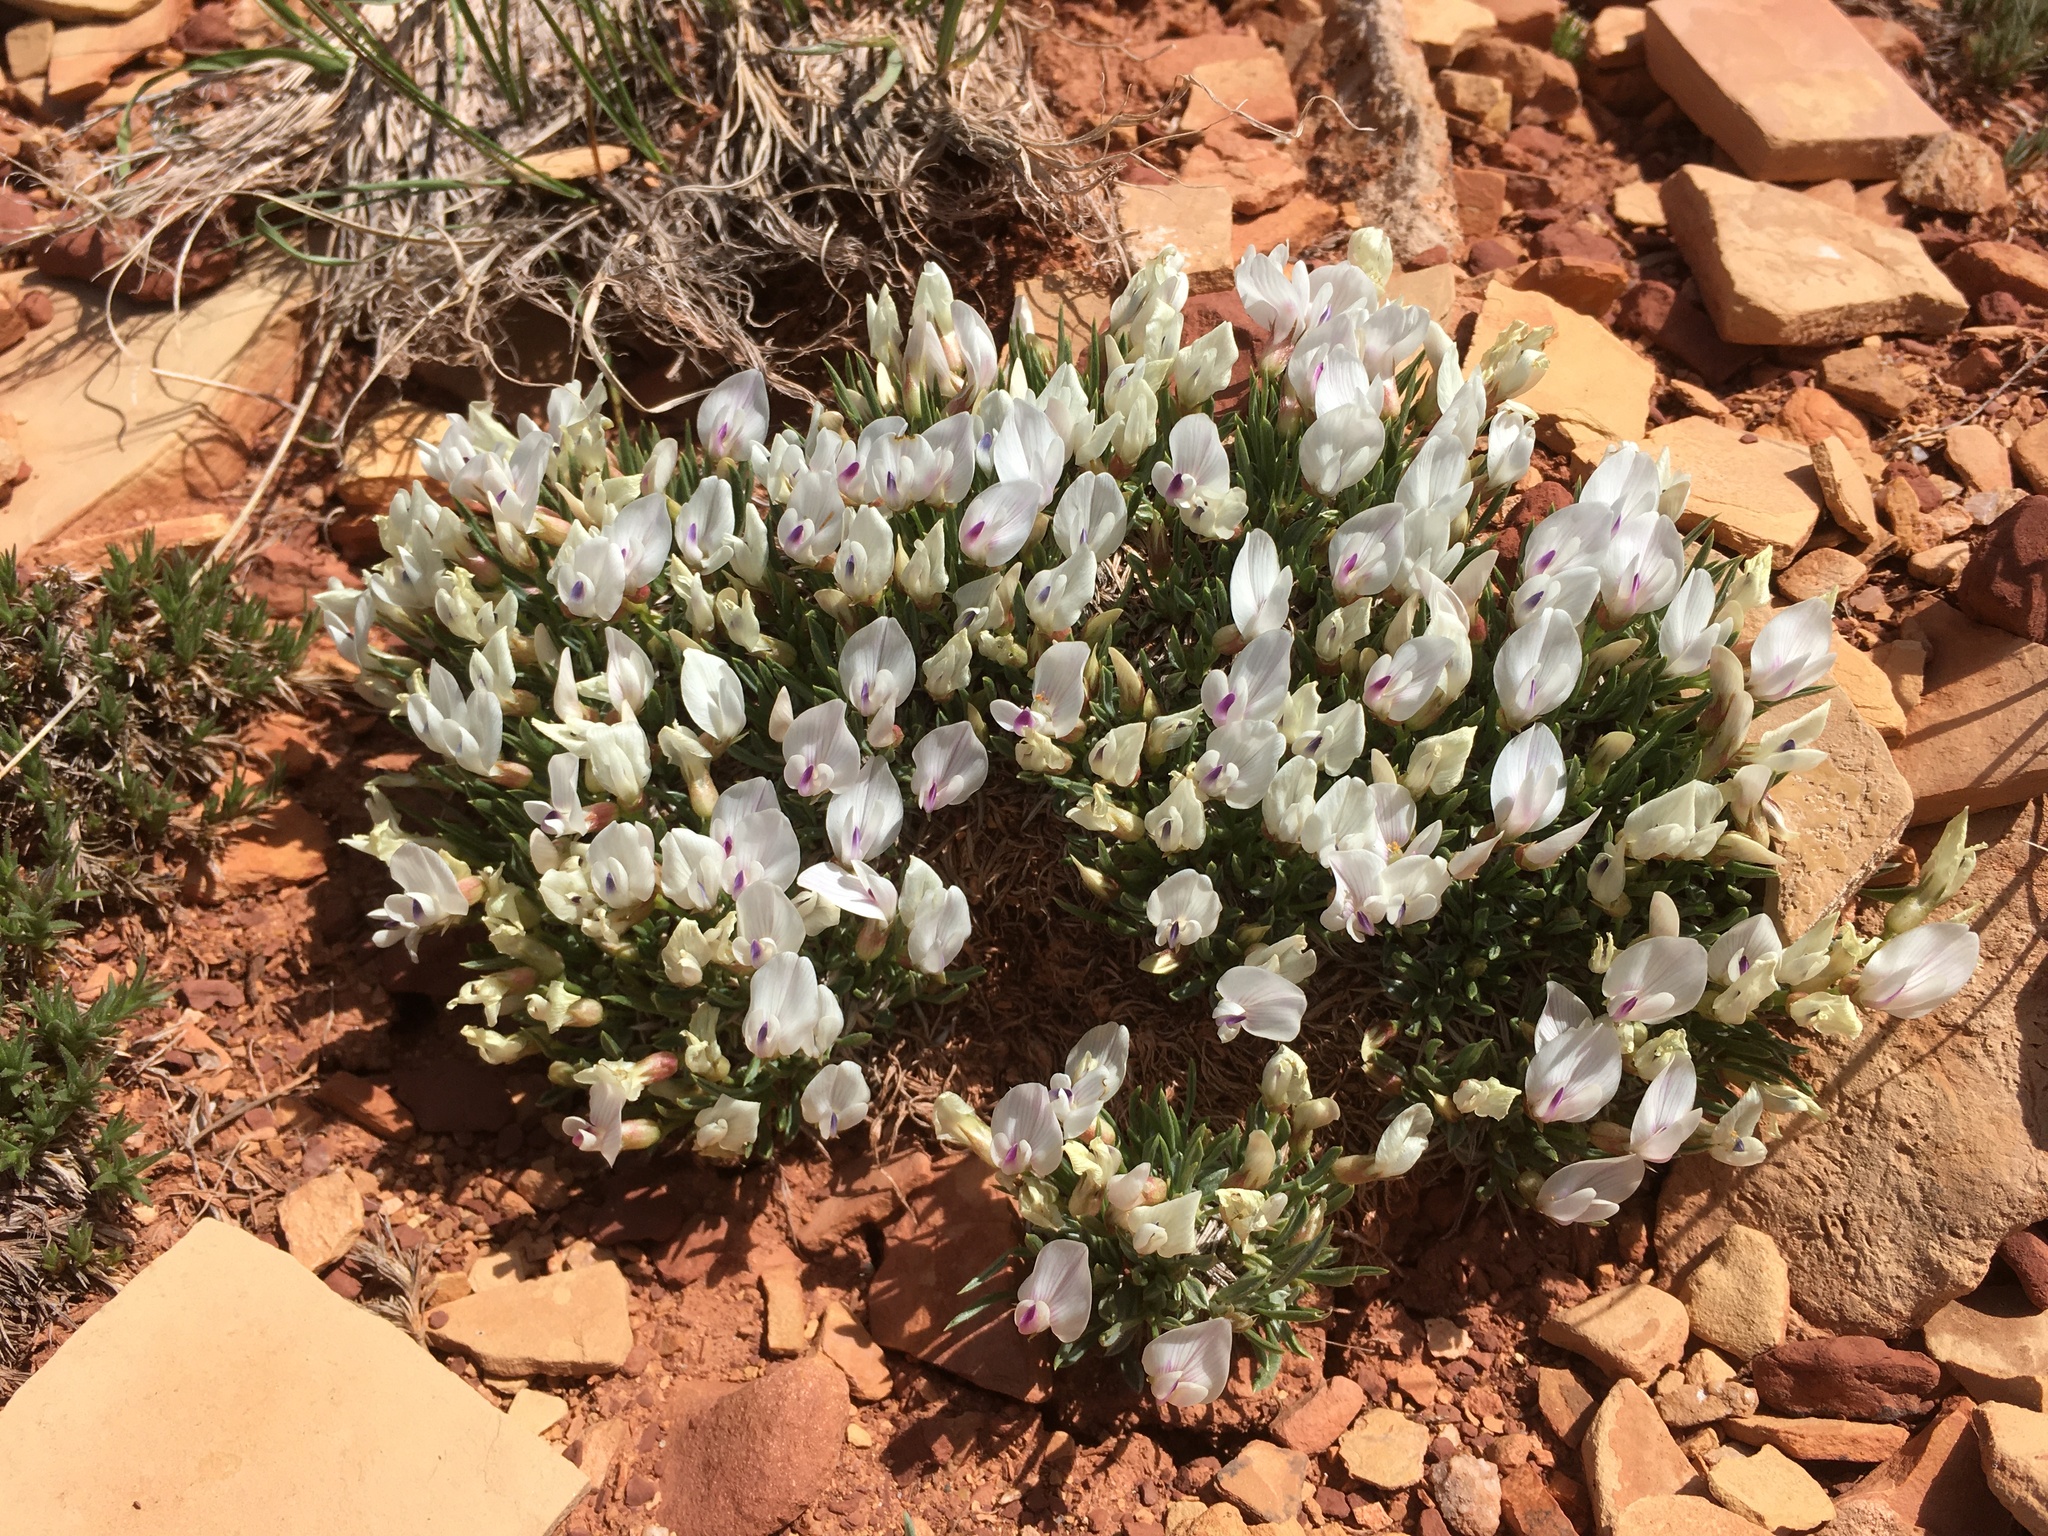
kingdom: Plantae
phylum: Tracheophyta
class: Magnoliopsida
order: Fabales
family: Fabaceae
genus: Astragalus
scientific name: Astragalus simplicifolius
